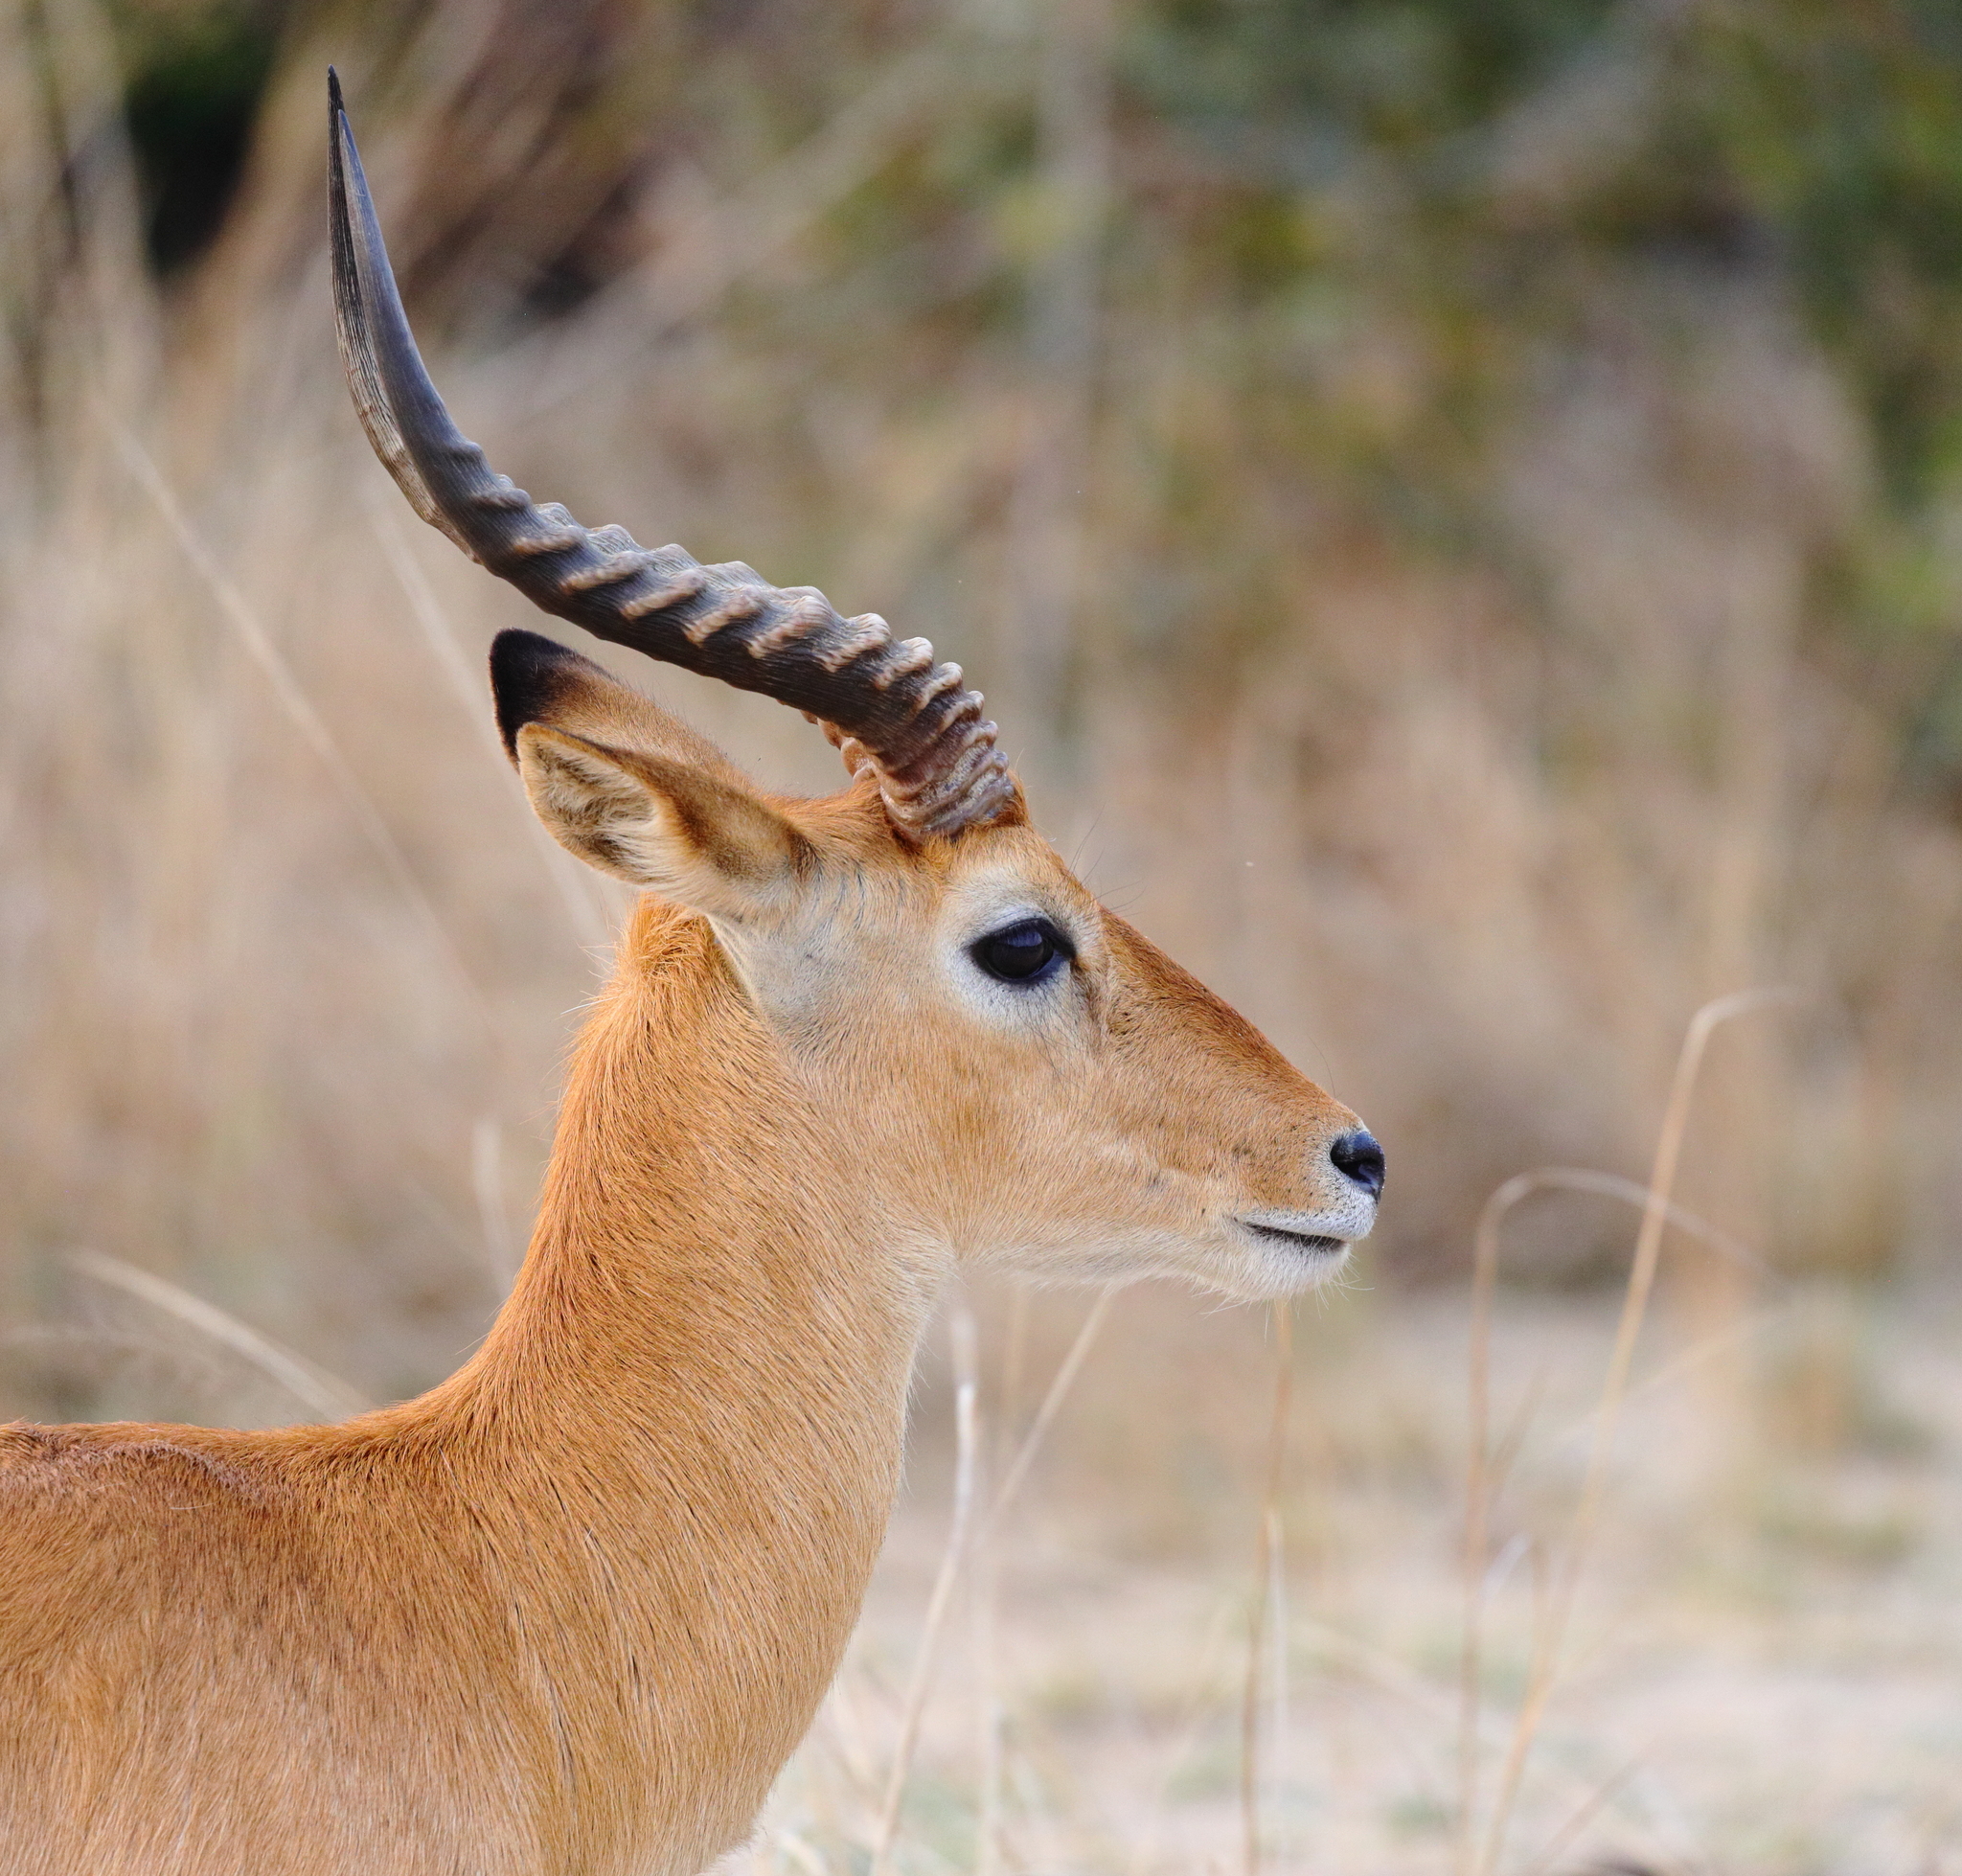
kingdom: Animalia
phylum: Chordata
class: Mammalia
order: Artiodactyla
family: Bovidae
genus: Kobus
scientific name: Kobus vardonii
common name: Puku
